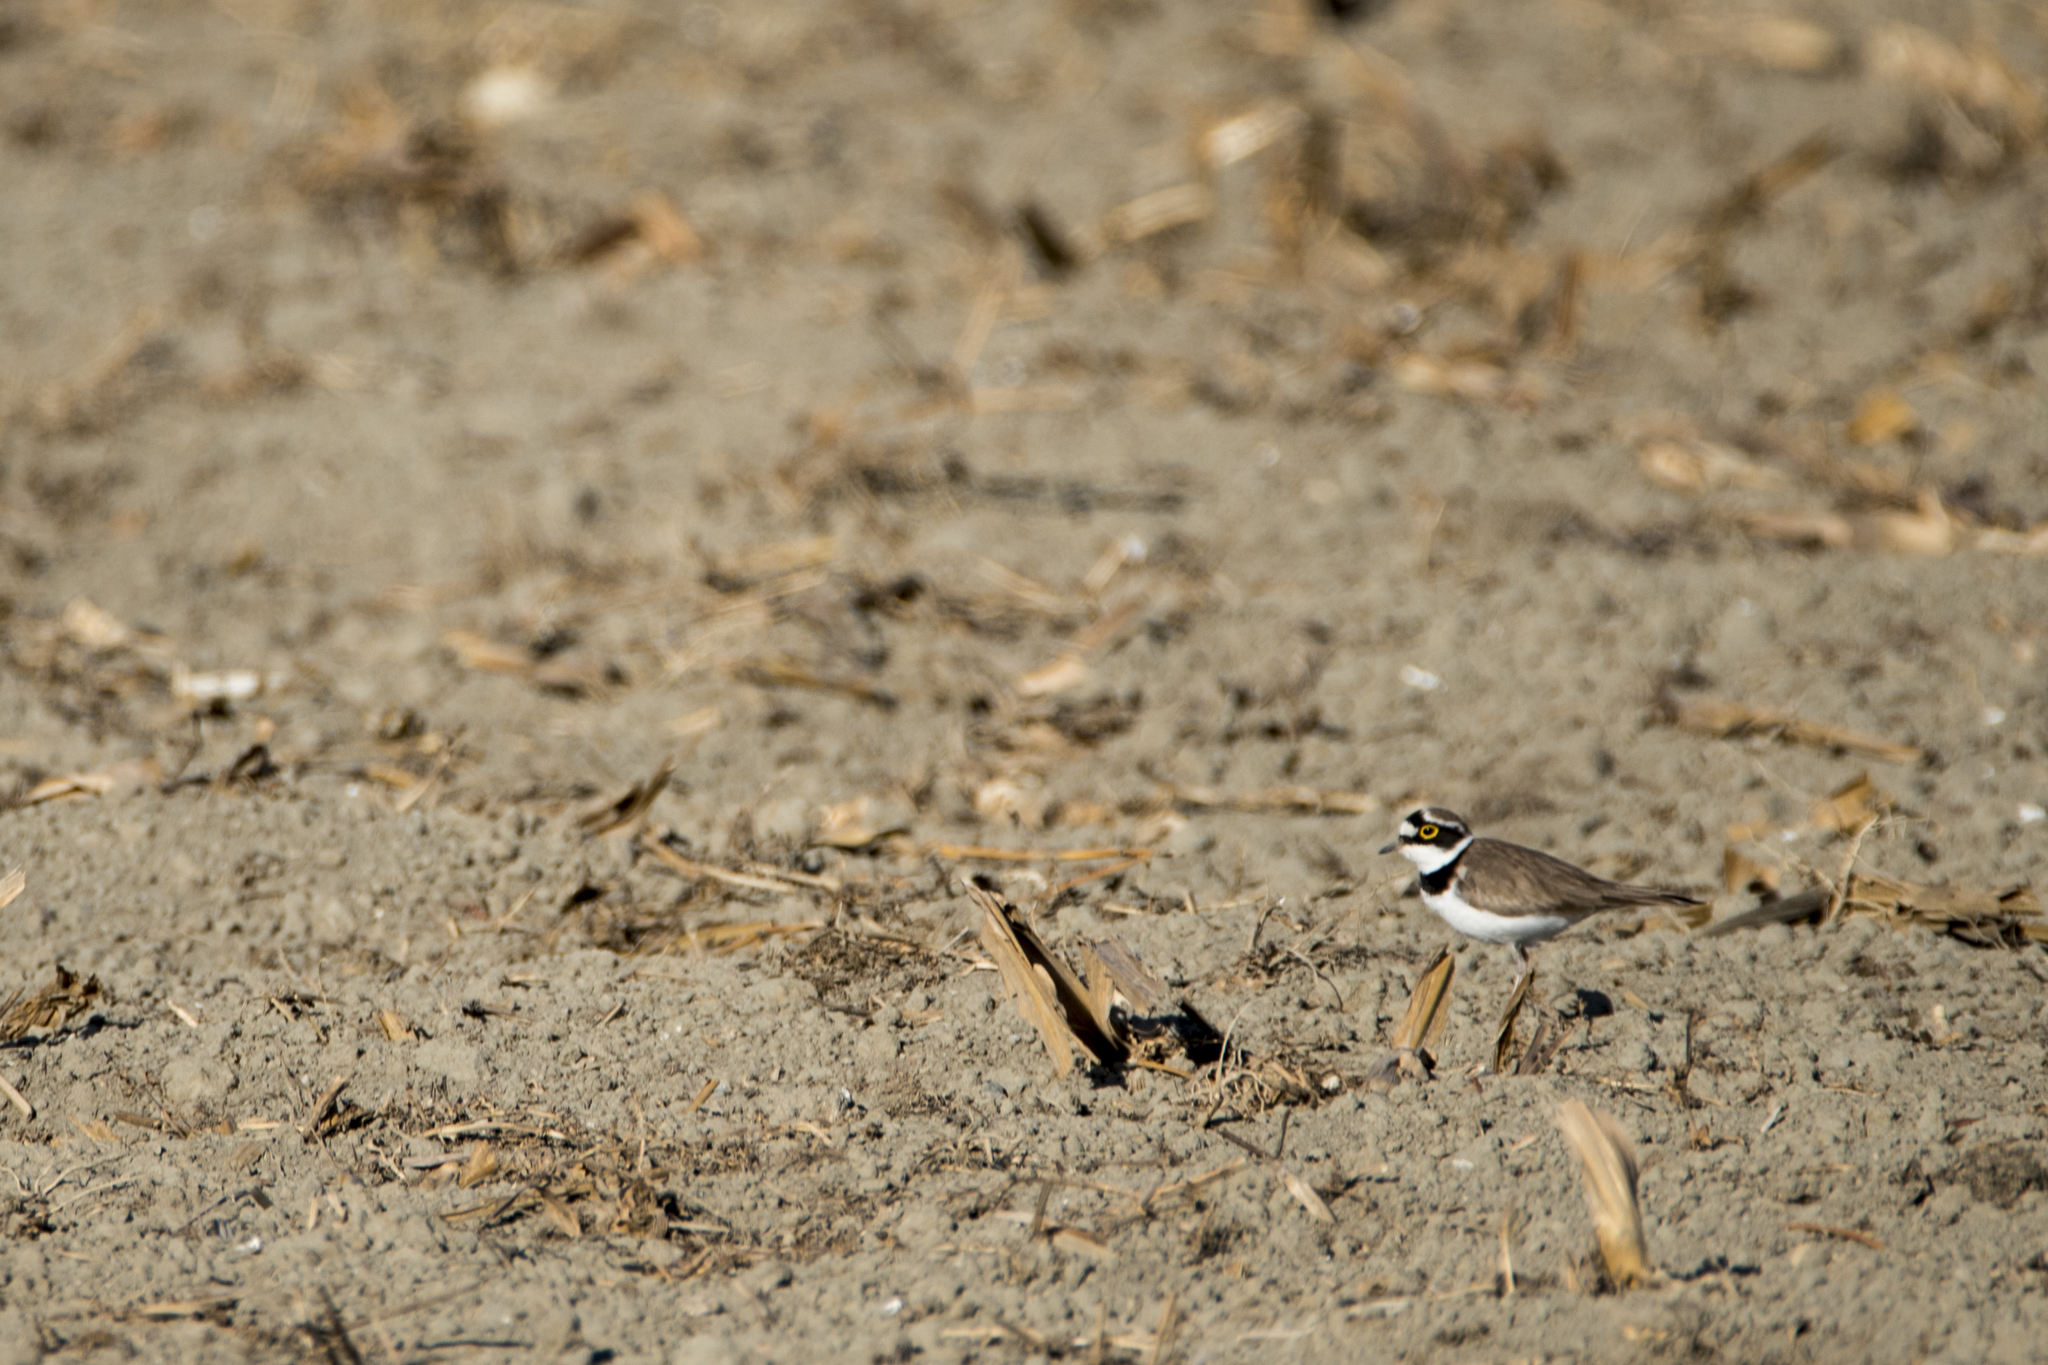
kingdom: Animalia
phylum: Chordata
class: Aves
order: Charadriiformes
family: Charadriidae
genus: Charadrius
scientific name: Charadrius dubius
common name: Little ringed plover
